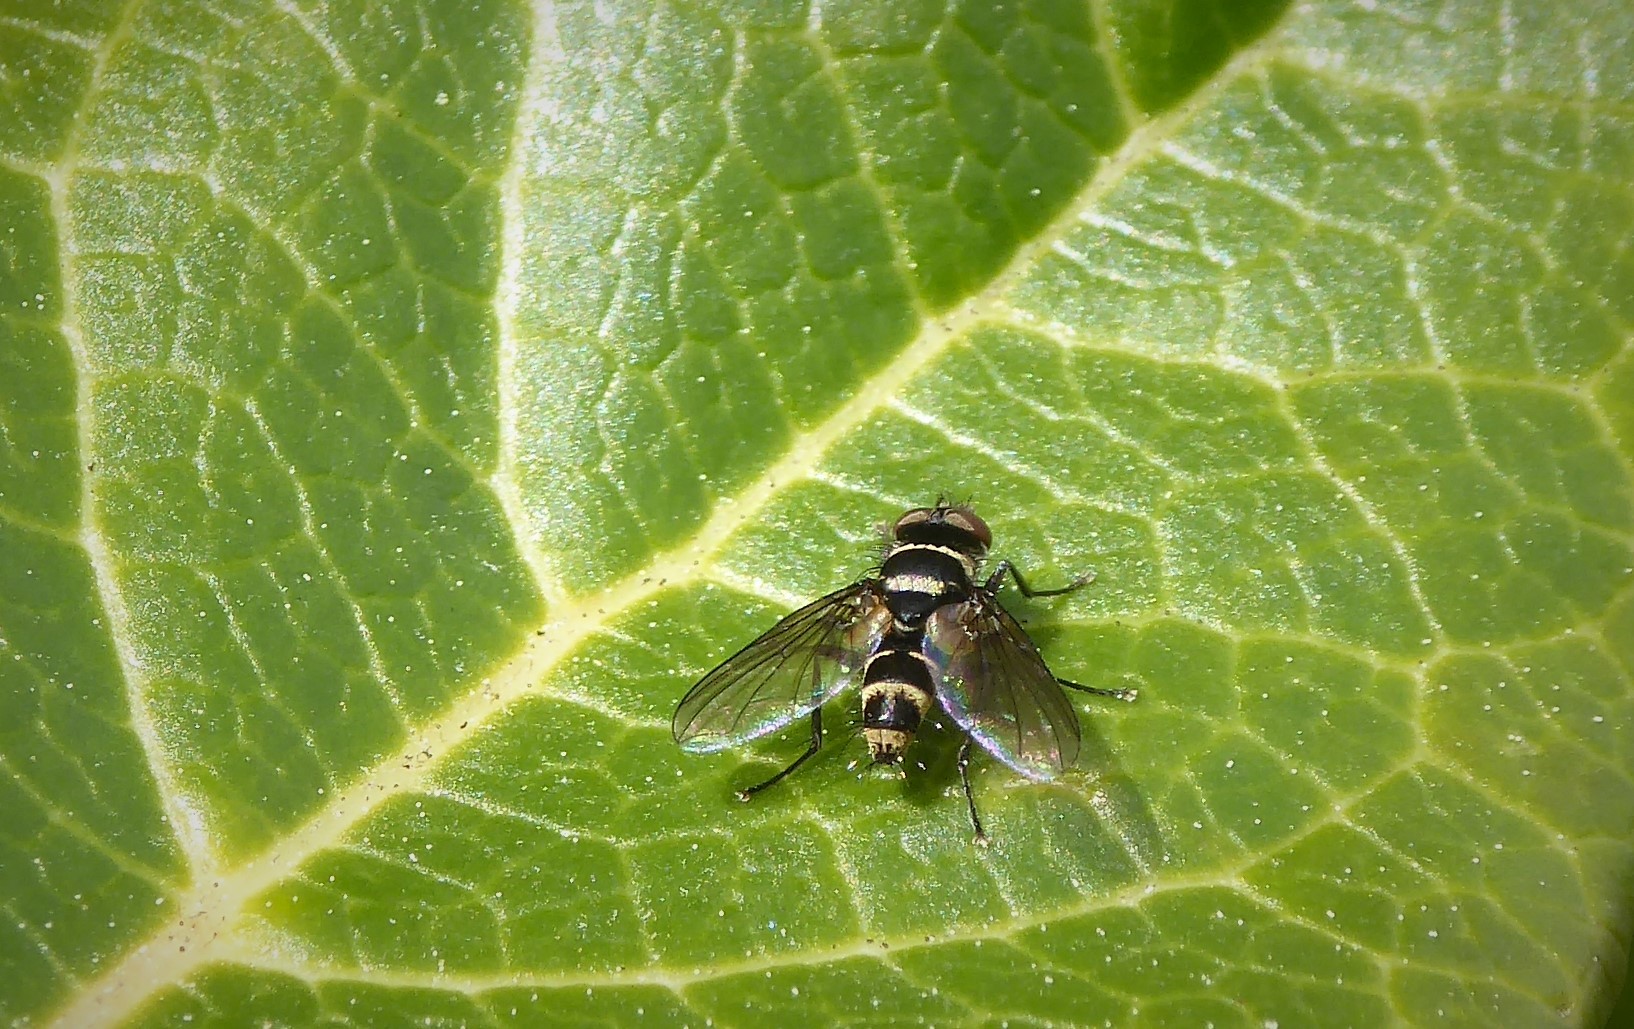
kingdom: Animalia
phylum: Arthropoda
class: Insecta
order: Diptera
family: Tachinidae
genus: Trigonospila
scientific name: Trigonospila brevifacies
